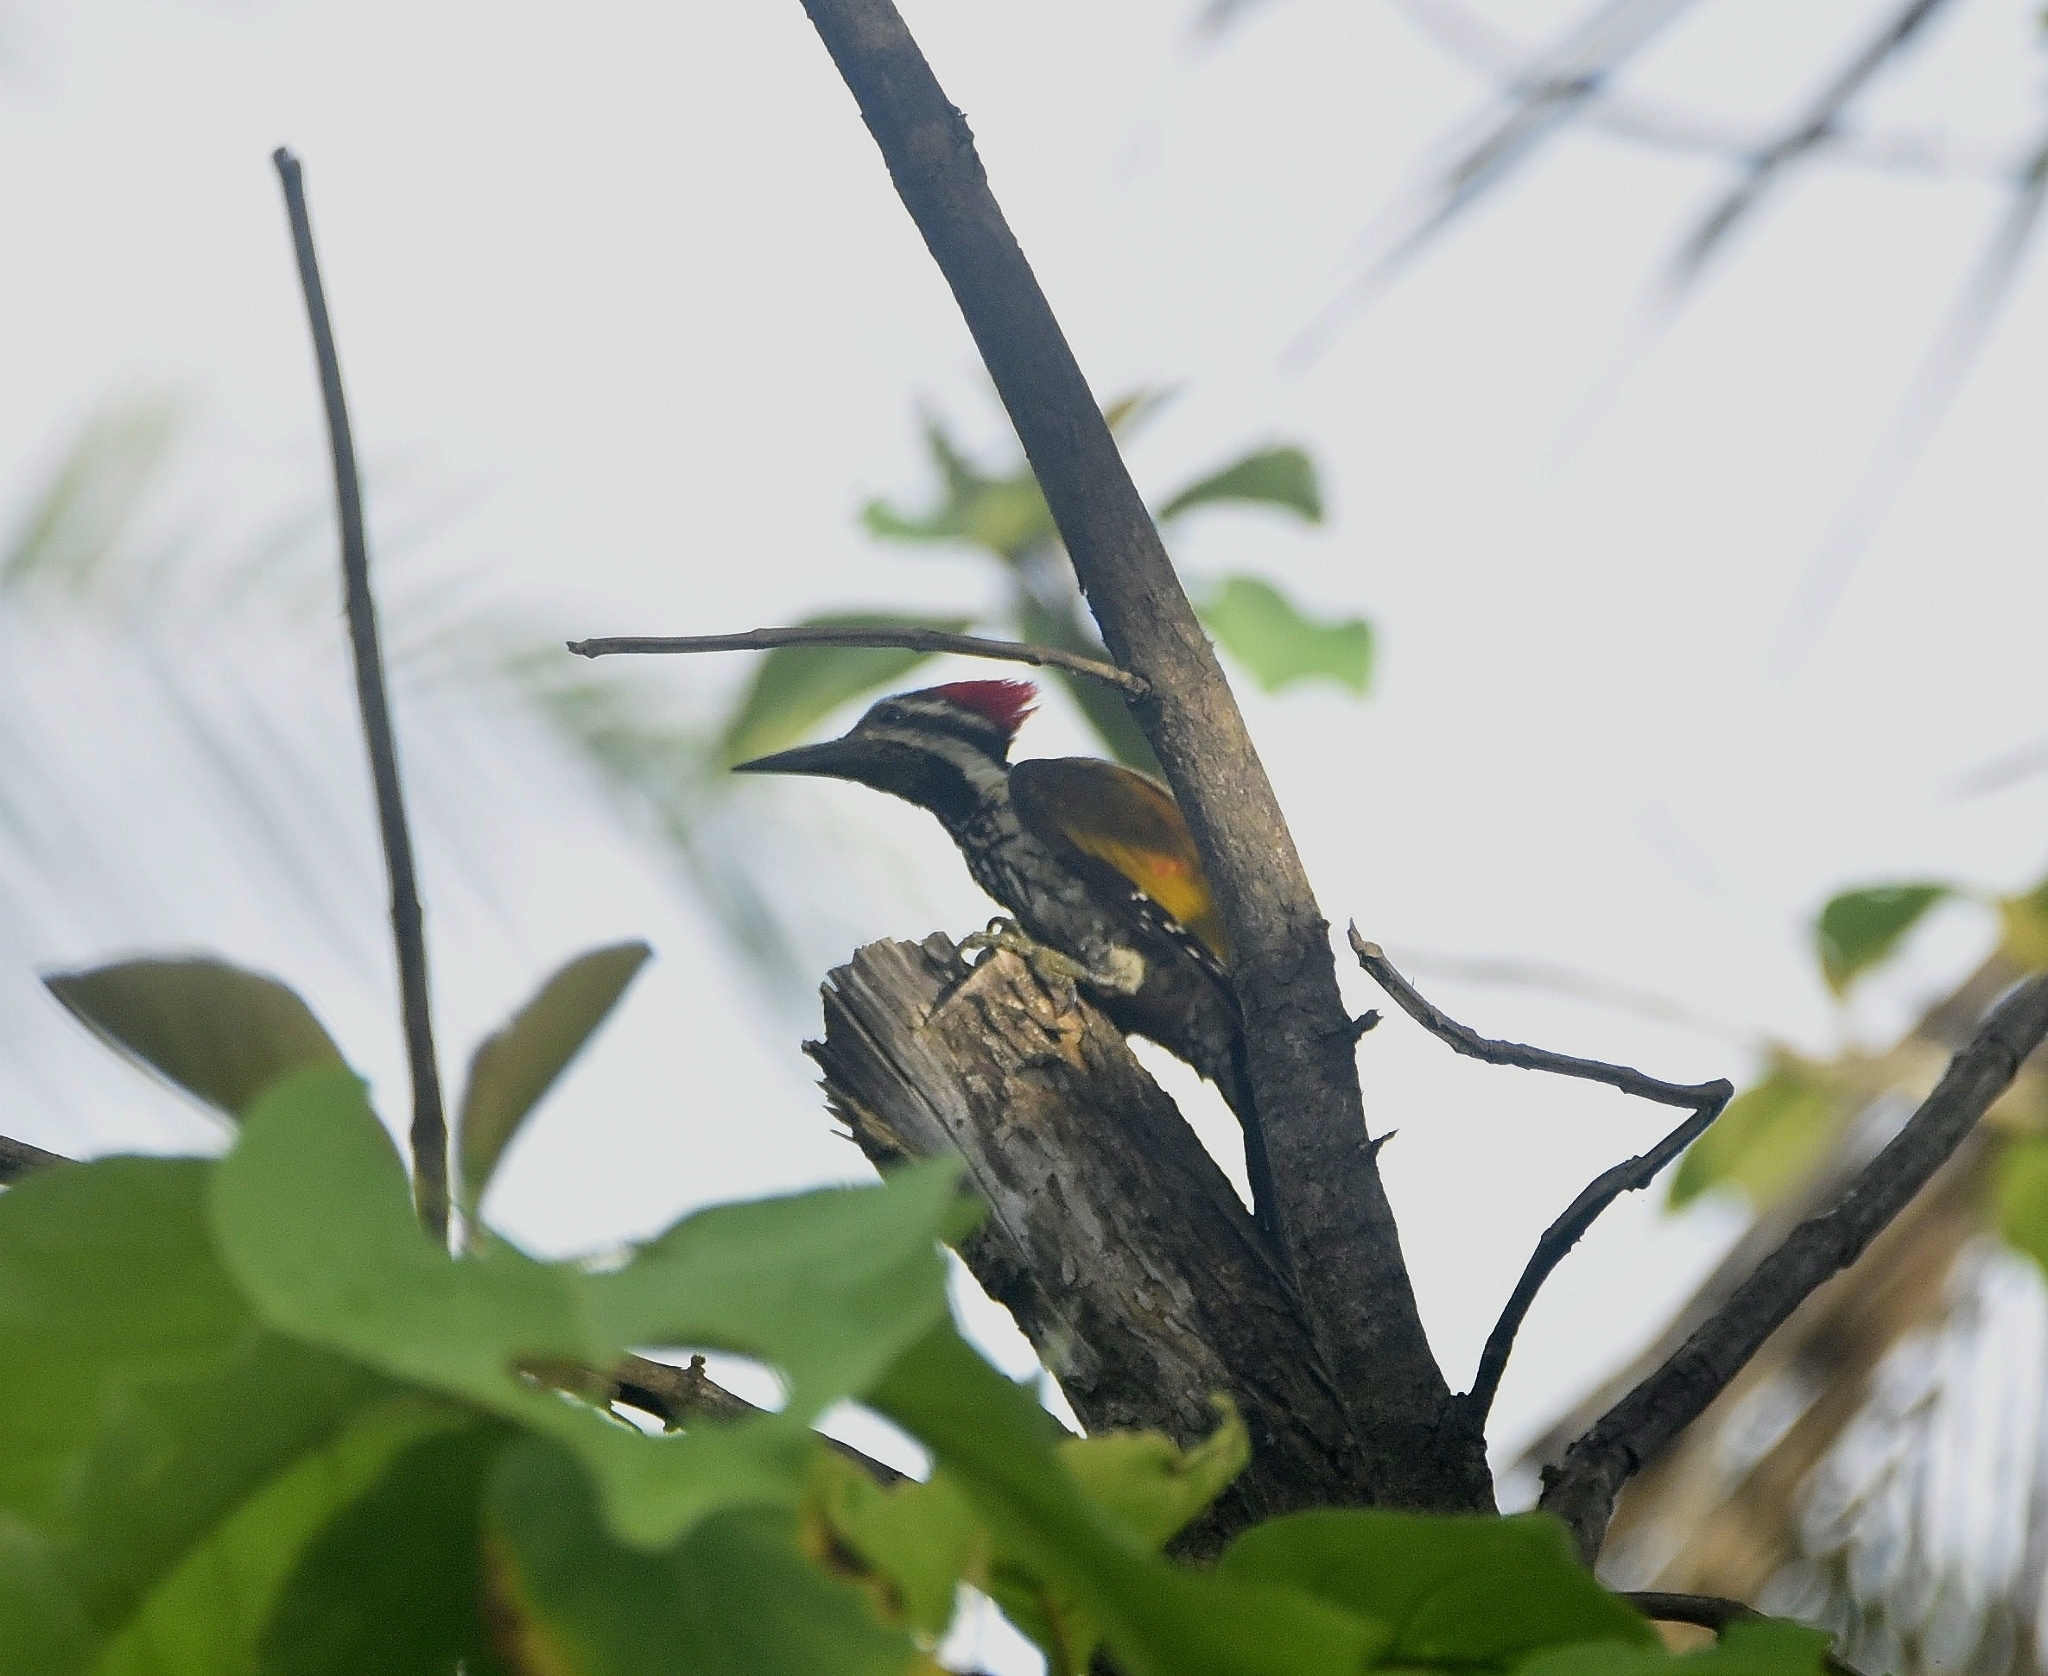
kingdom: Animalia
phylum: Chordata
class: Aves
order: Piciformes
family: Picidae
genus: Dinopium
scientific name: Dinopium benghalense
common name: Black-rumped flameback
